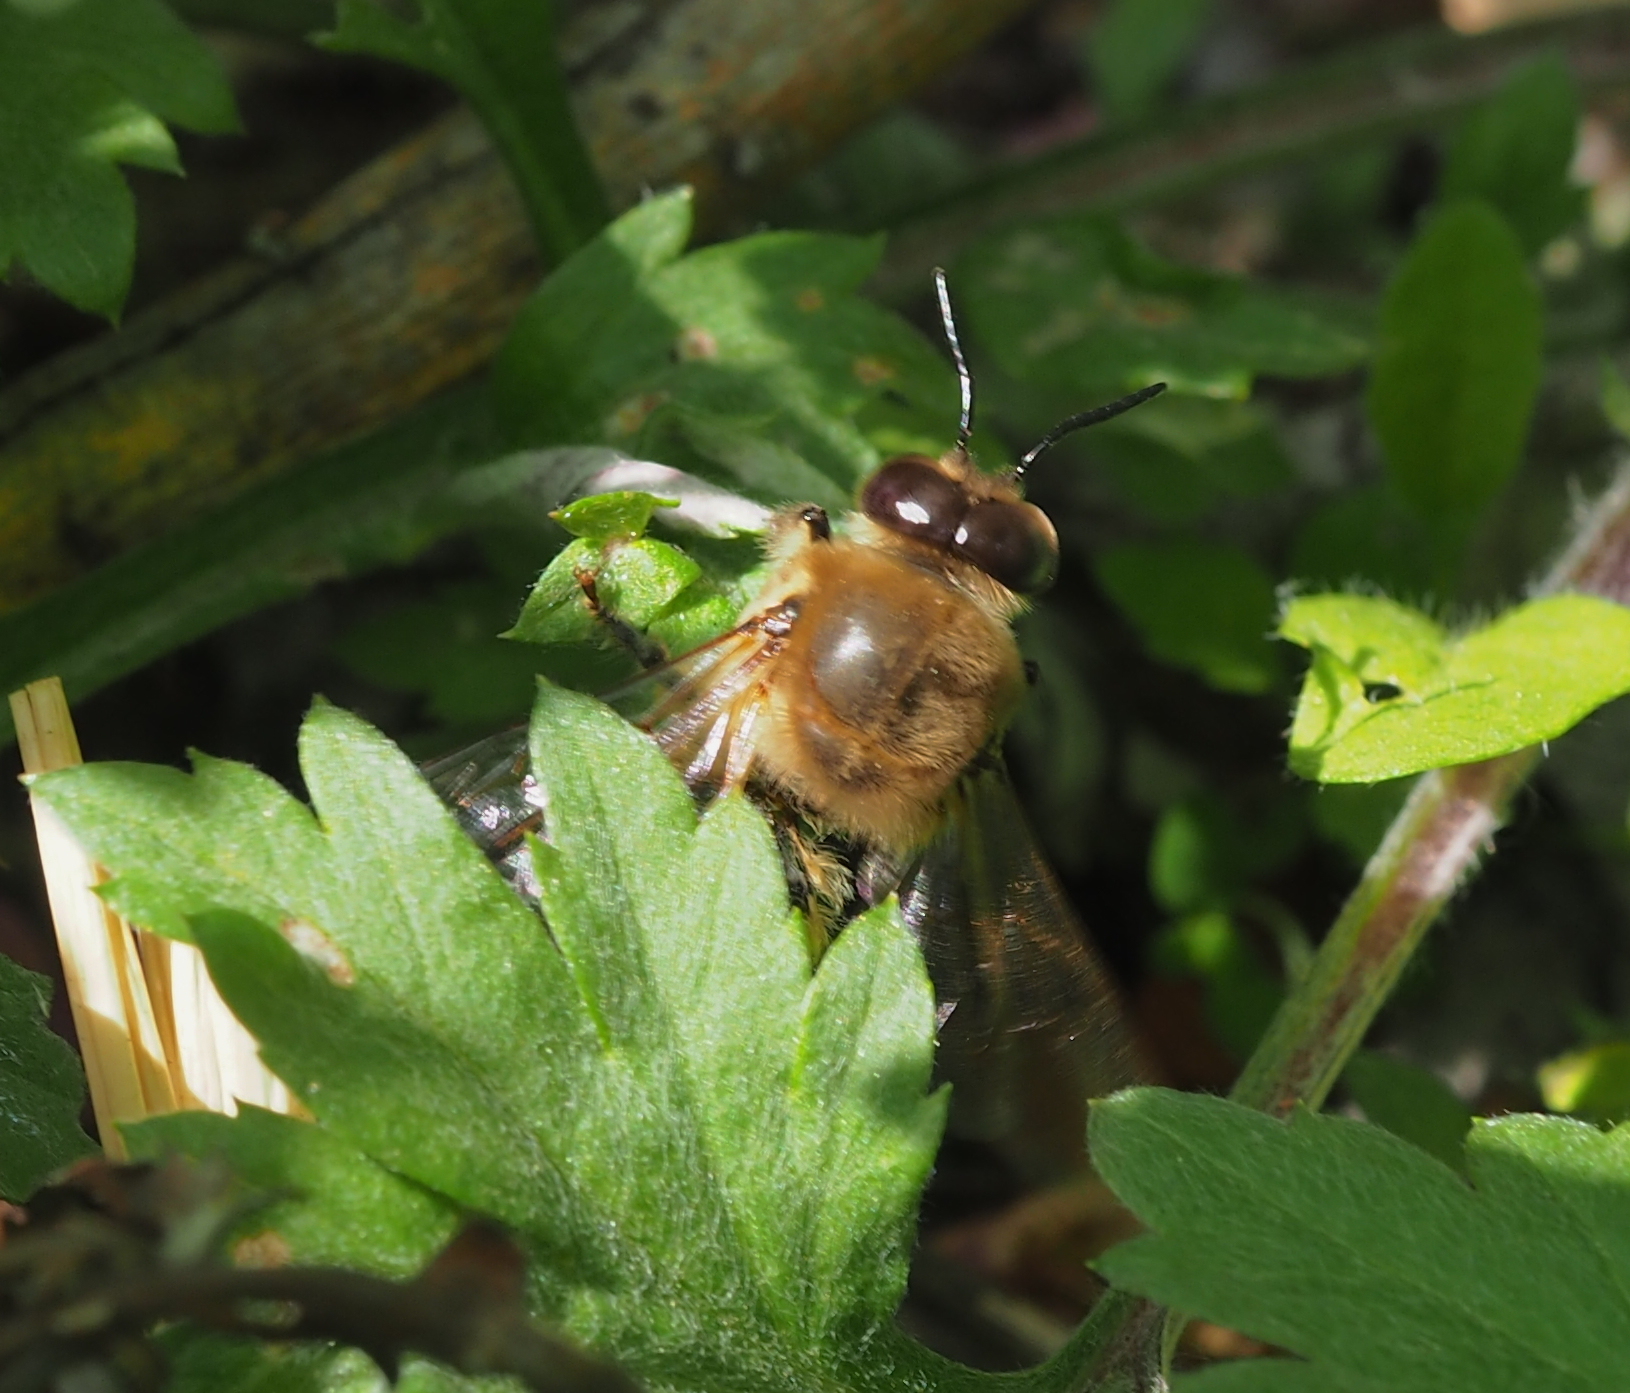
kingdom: Animalia
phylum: Arthropoda
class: Insecta
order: Hymenoptera
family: Apidae
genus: Apis
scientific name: Apis mellifera
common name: Honey bee
